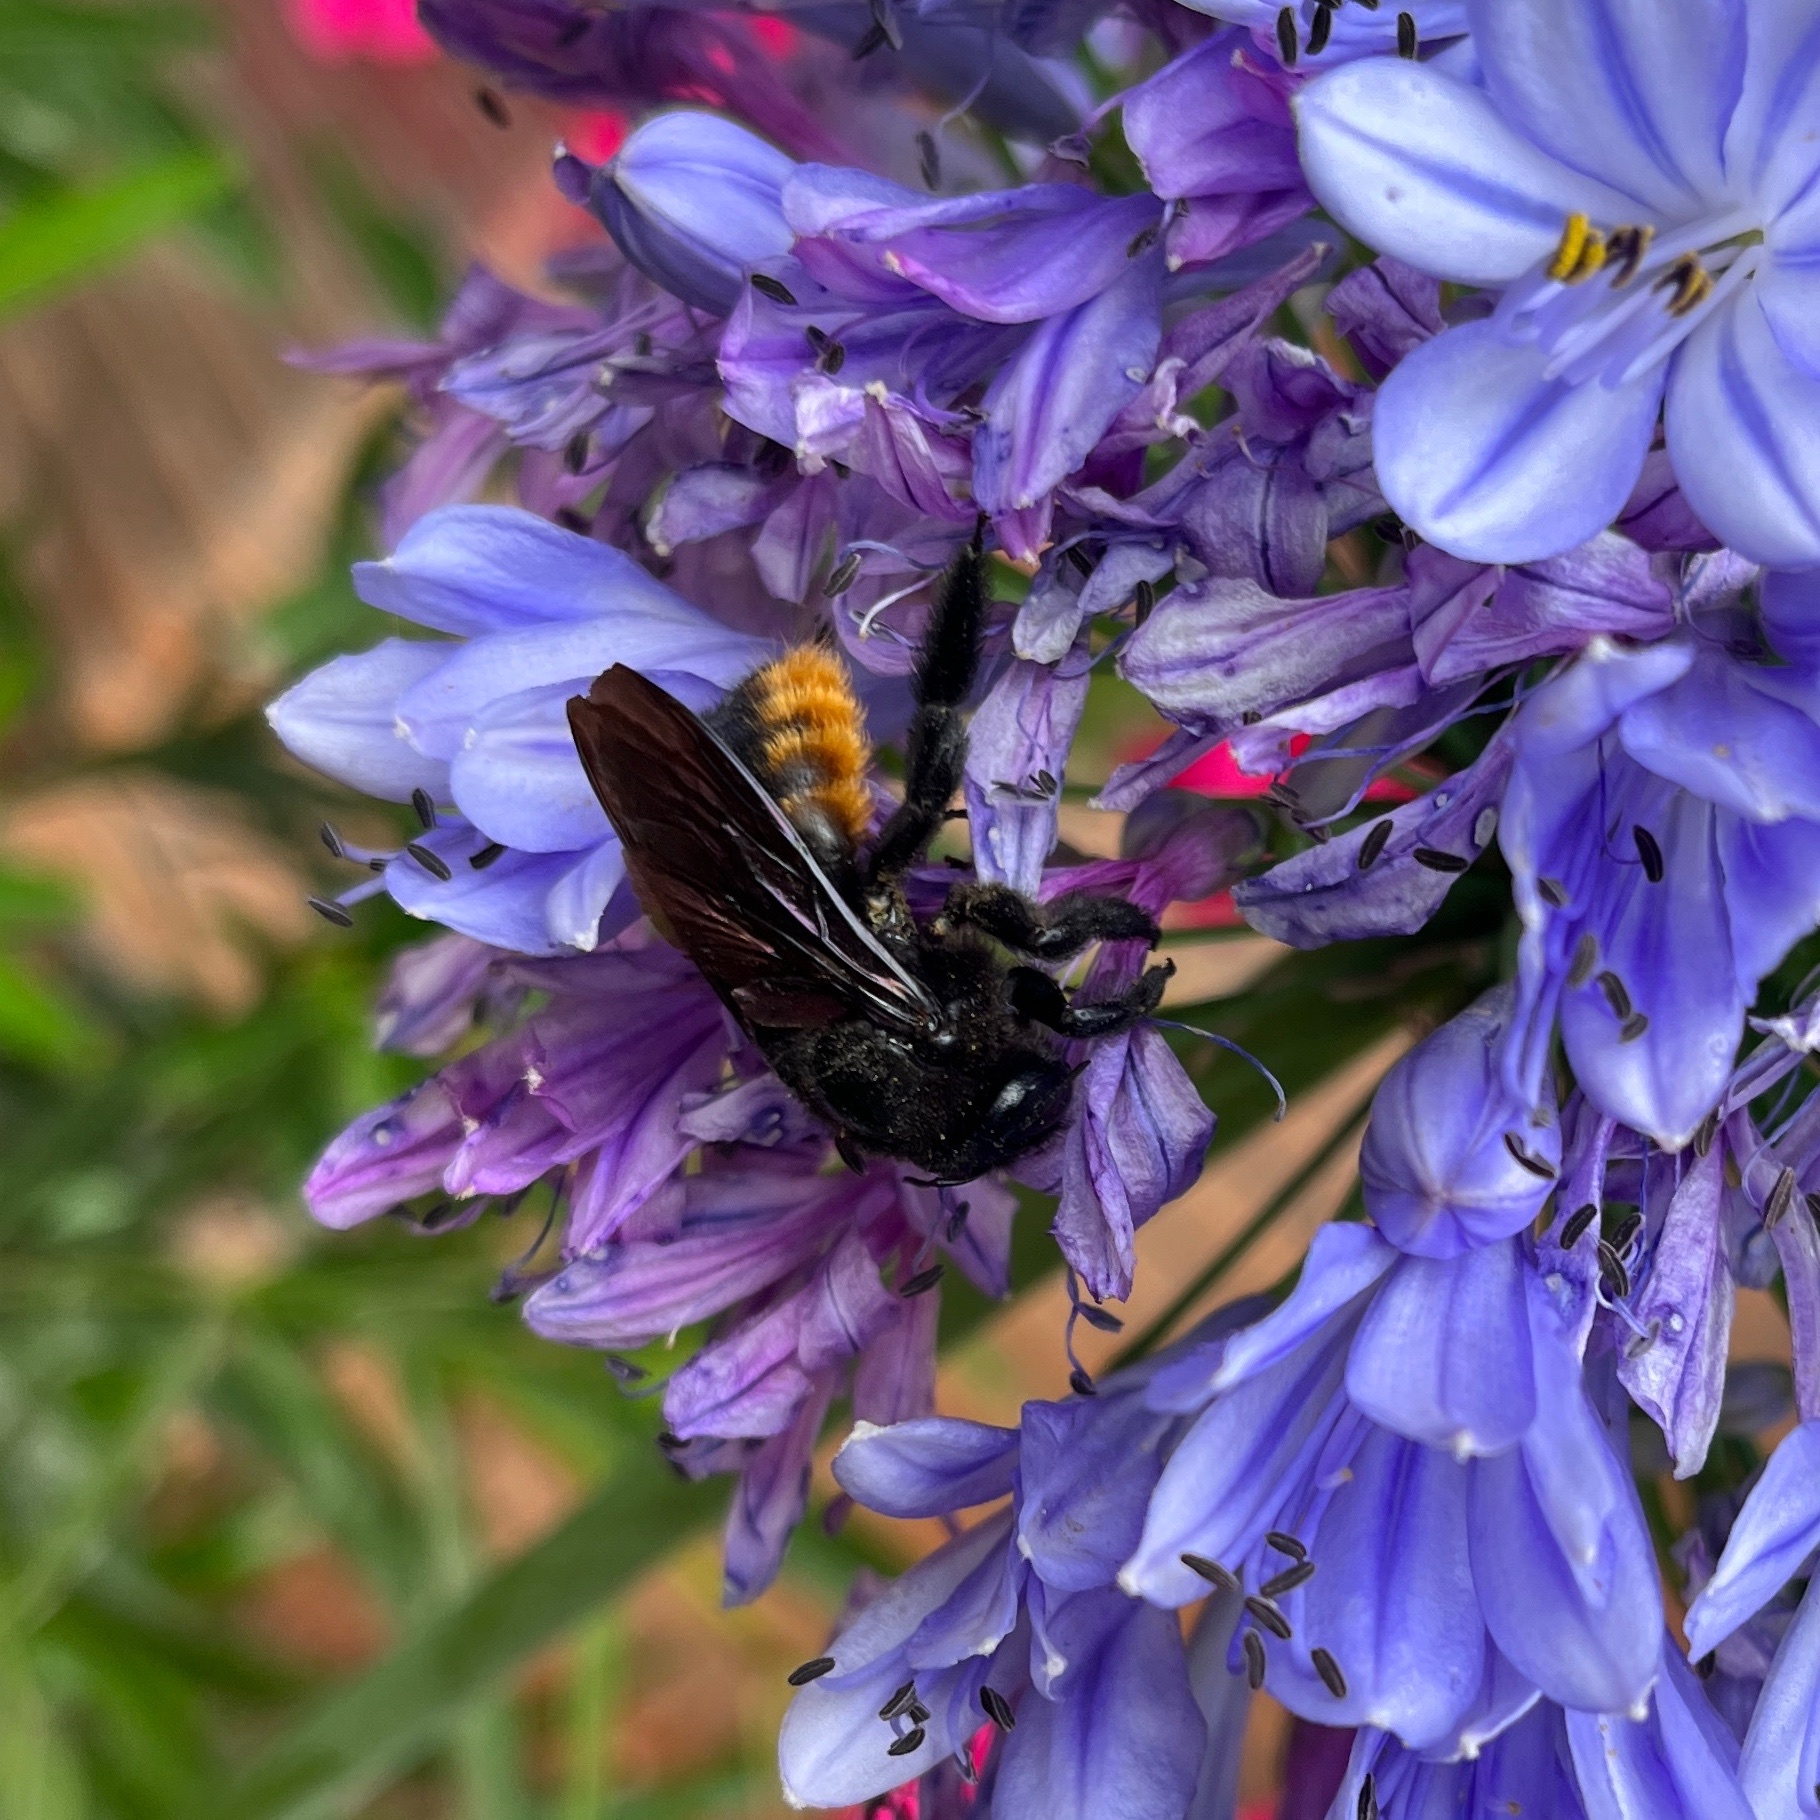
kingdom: Animalia
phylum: Arthropoda
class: Insecta
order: Hymenoptera
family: Apidae
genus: Xylocopa
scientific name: Xylocopa augusti
